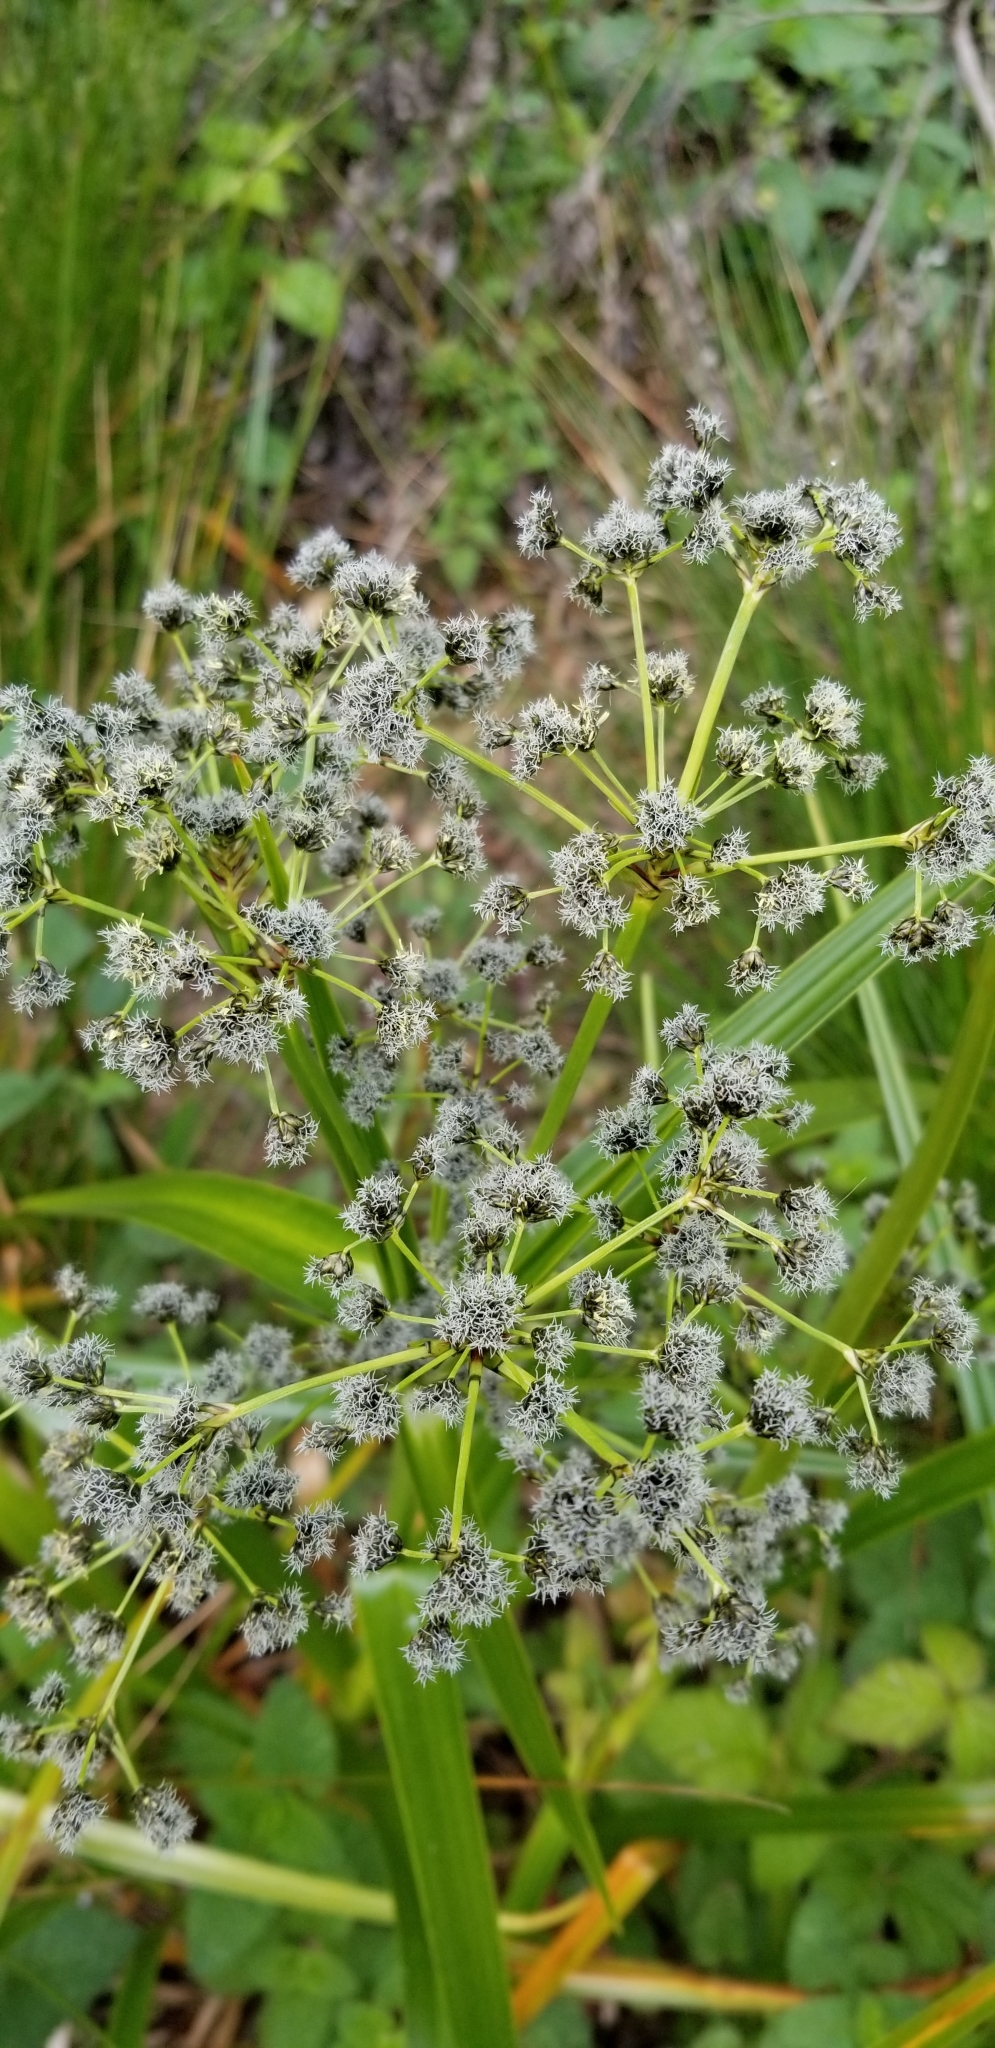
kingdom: Plantae
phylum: Tracheophyta
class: Liliopsida
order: Poales
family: Cyperaceae
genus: Scirpus
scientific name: Scirpus microcarpus
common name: Panicled bulrush
